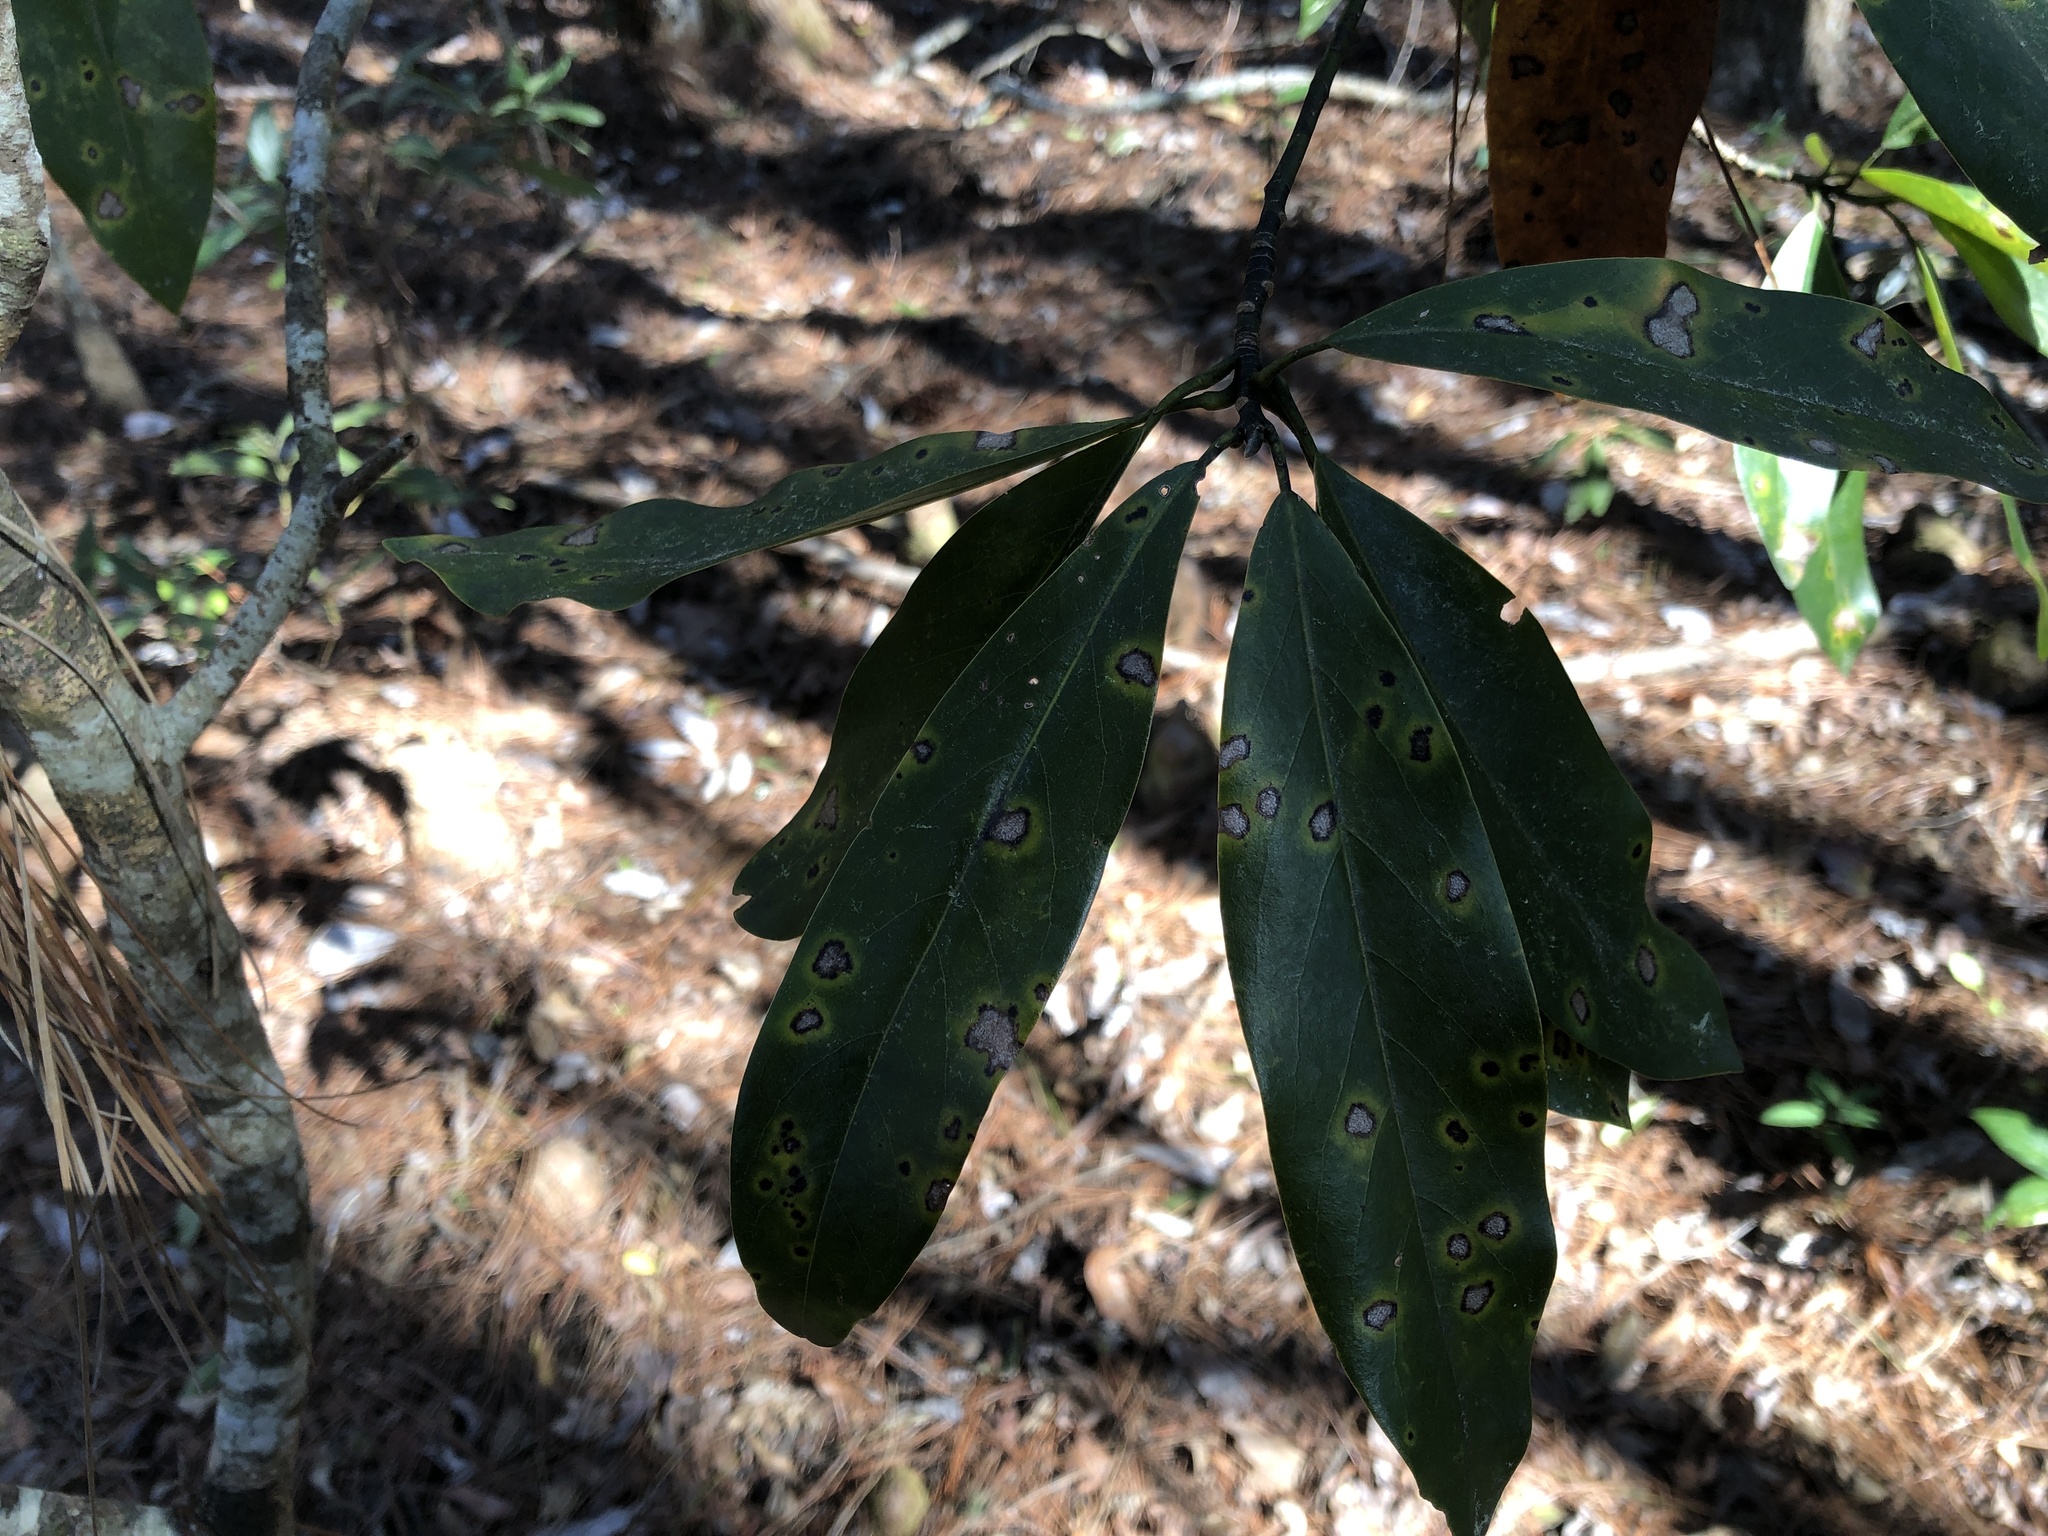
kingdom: Plantae
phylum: Tracheophyta
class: Magnoliopsida
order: Magnoliales
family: Magnoliaceae
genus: Magnolia
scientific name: Magnolia virginiana
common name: Swamp bay
